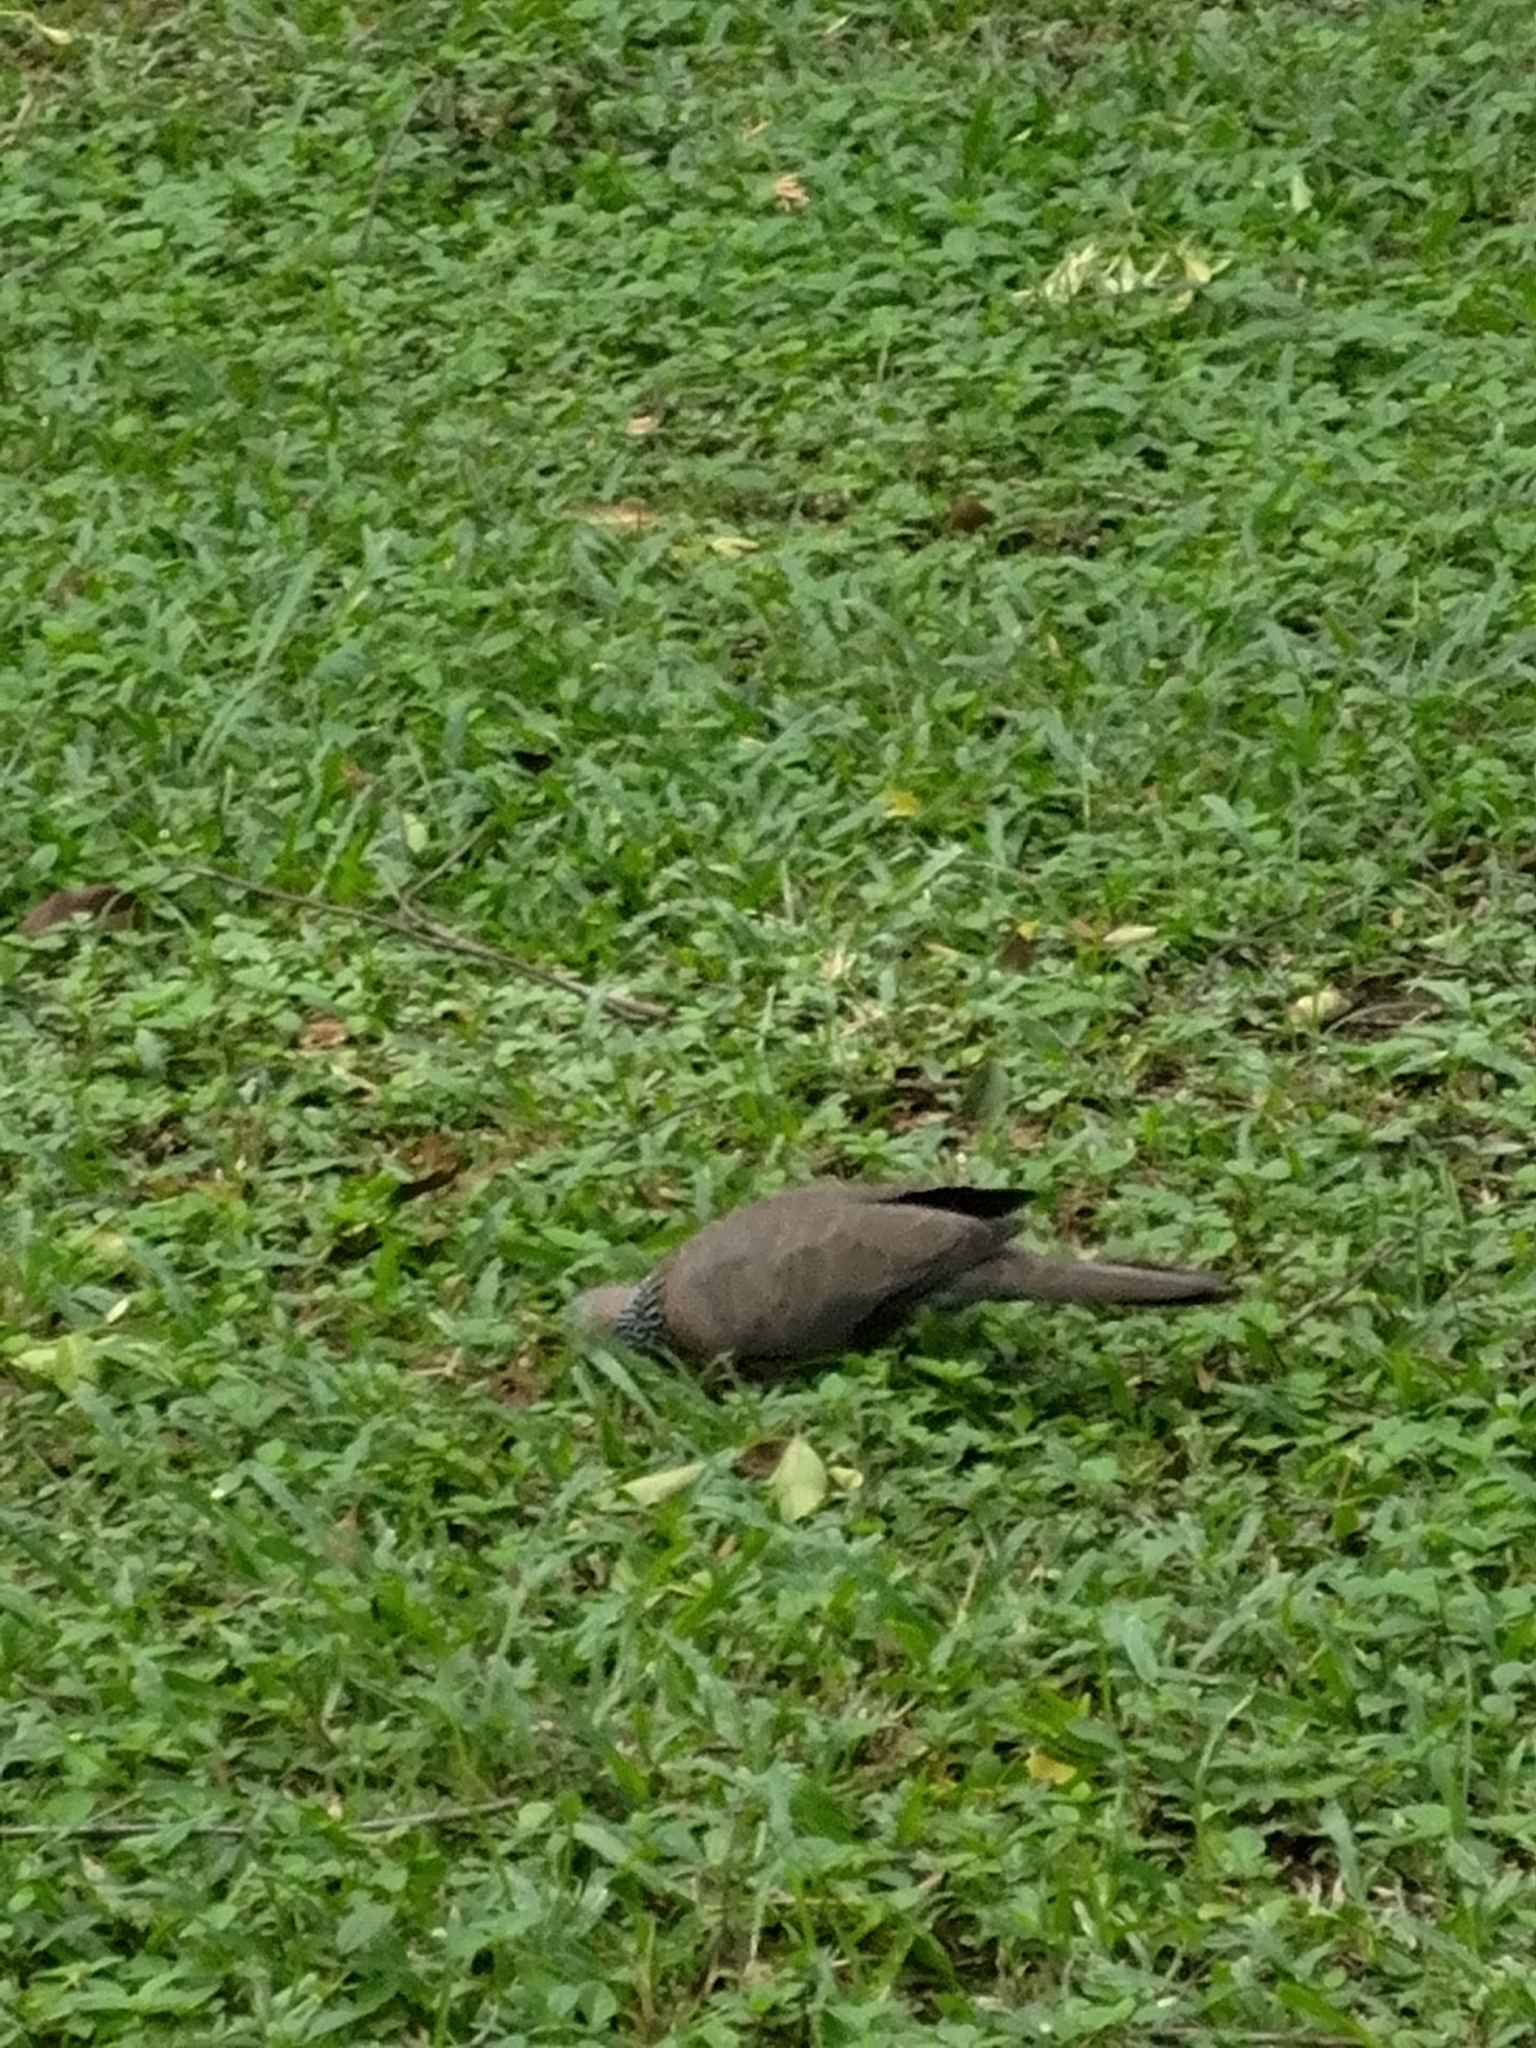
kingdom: Animalia
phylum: Chordata
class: Aves
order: Columbiformes
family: Columbidae
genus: Spilopelia
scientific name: Spilopelia chinensis
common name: Spotted dove
